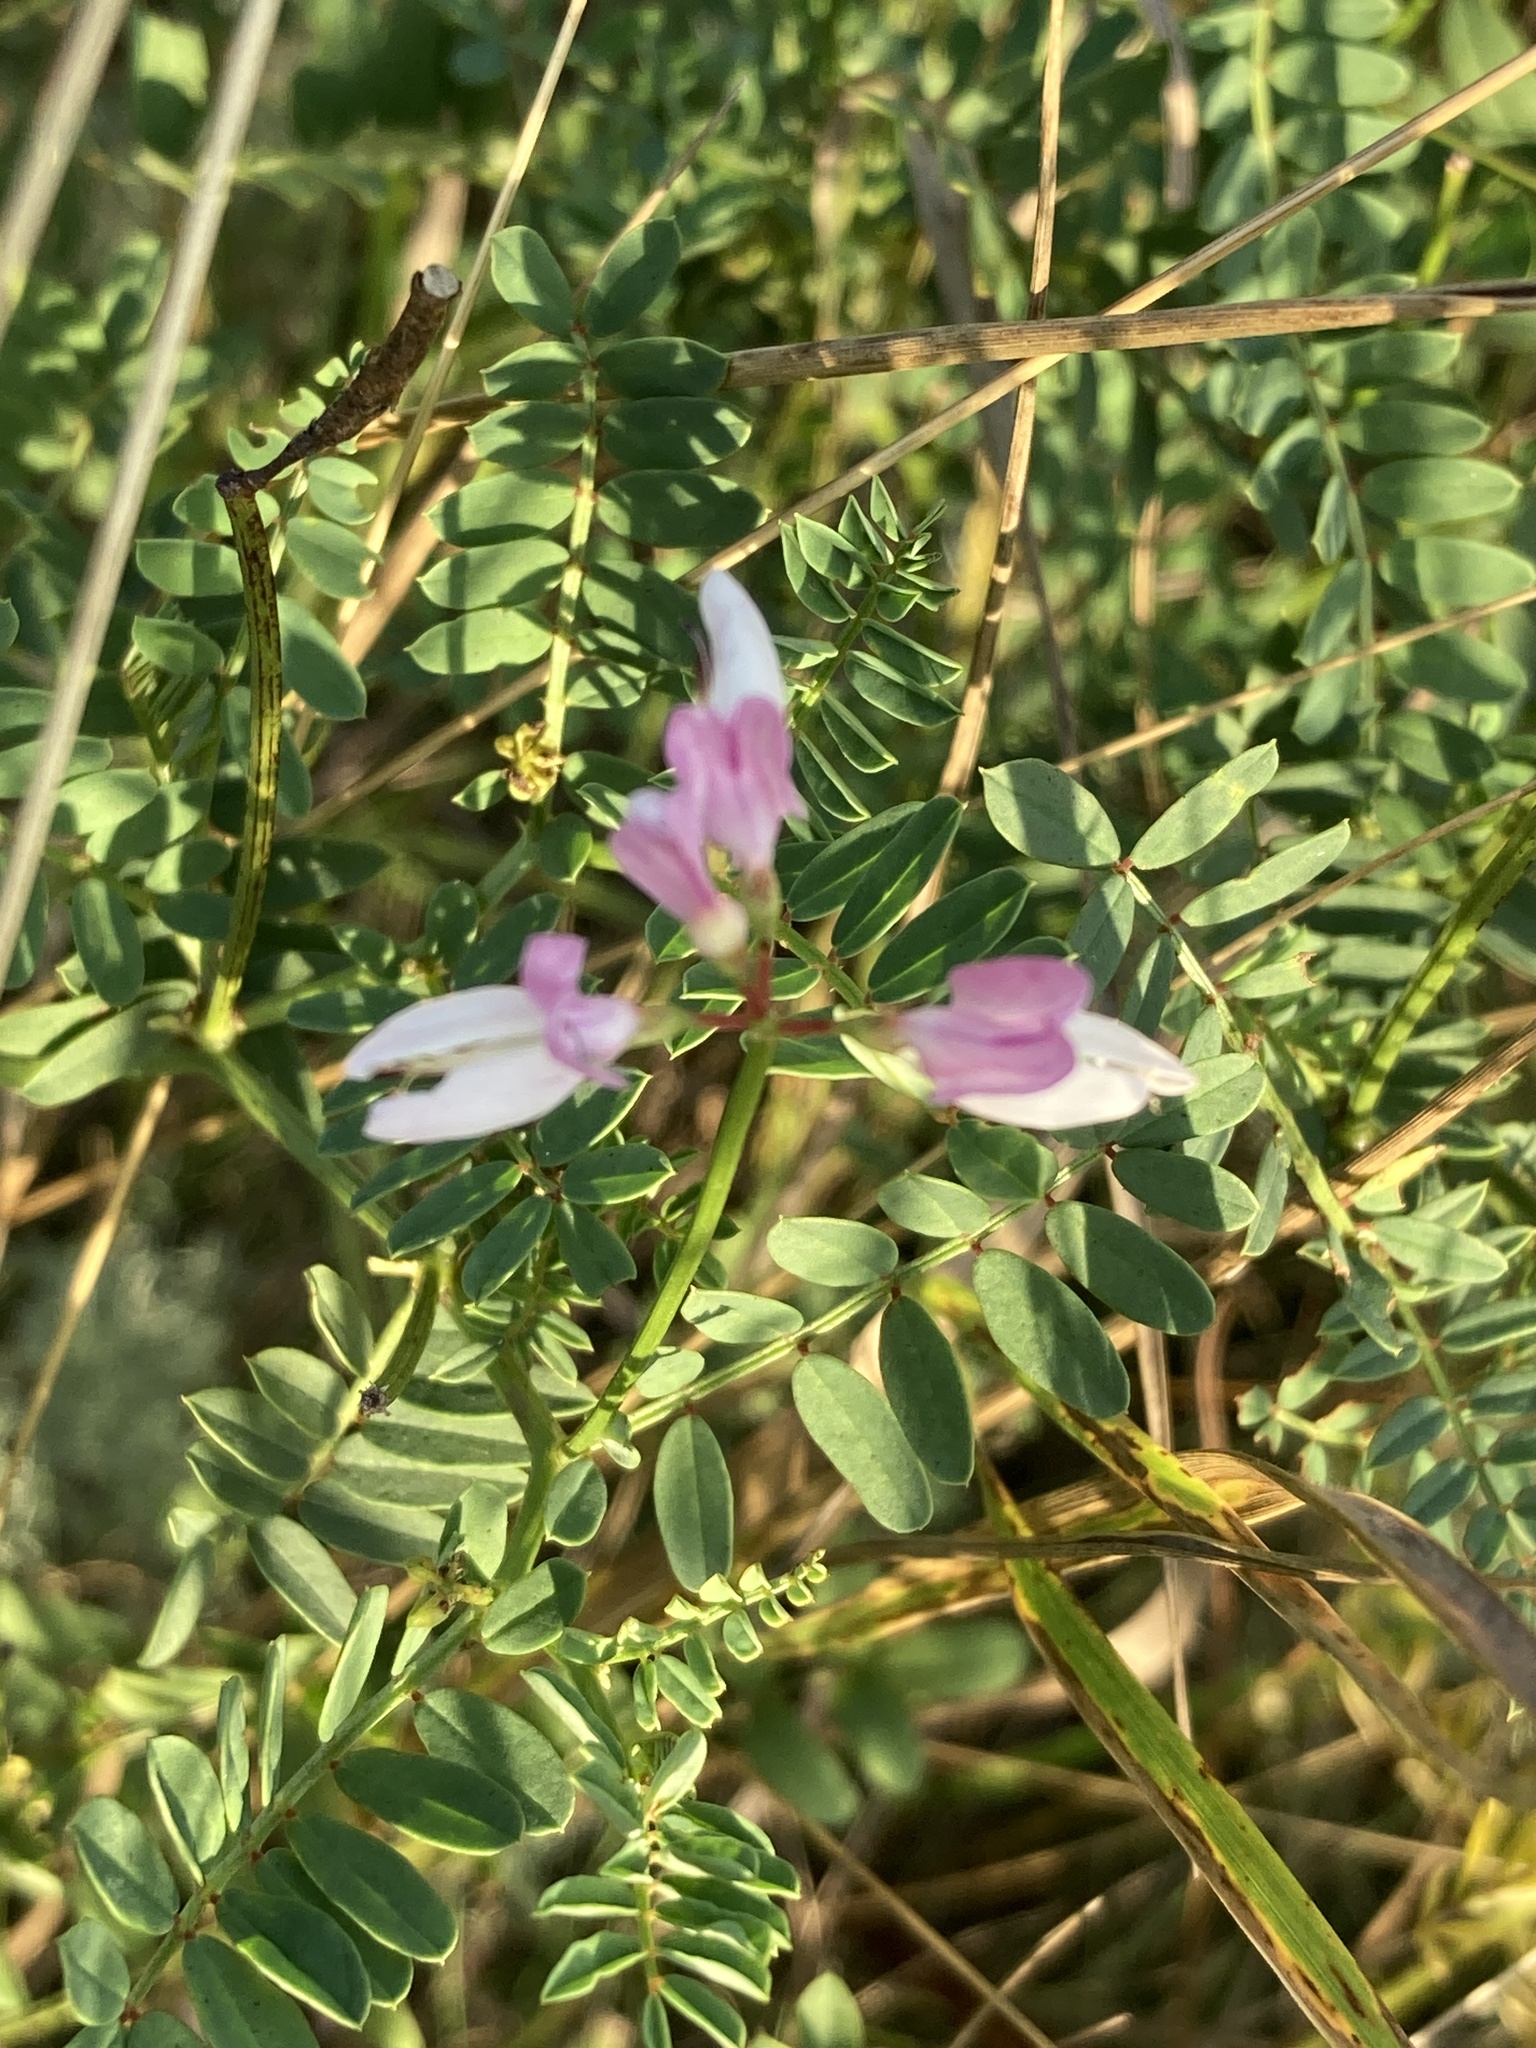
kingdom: Plantae
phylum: Tracheophyta
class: Magnoliopsida
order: Fabales
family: Fabaceae
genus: Coronilla
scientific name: Coronilla varia
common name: Crownvetch
